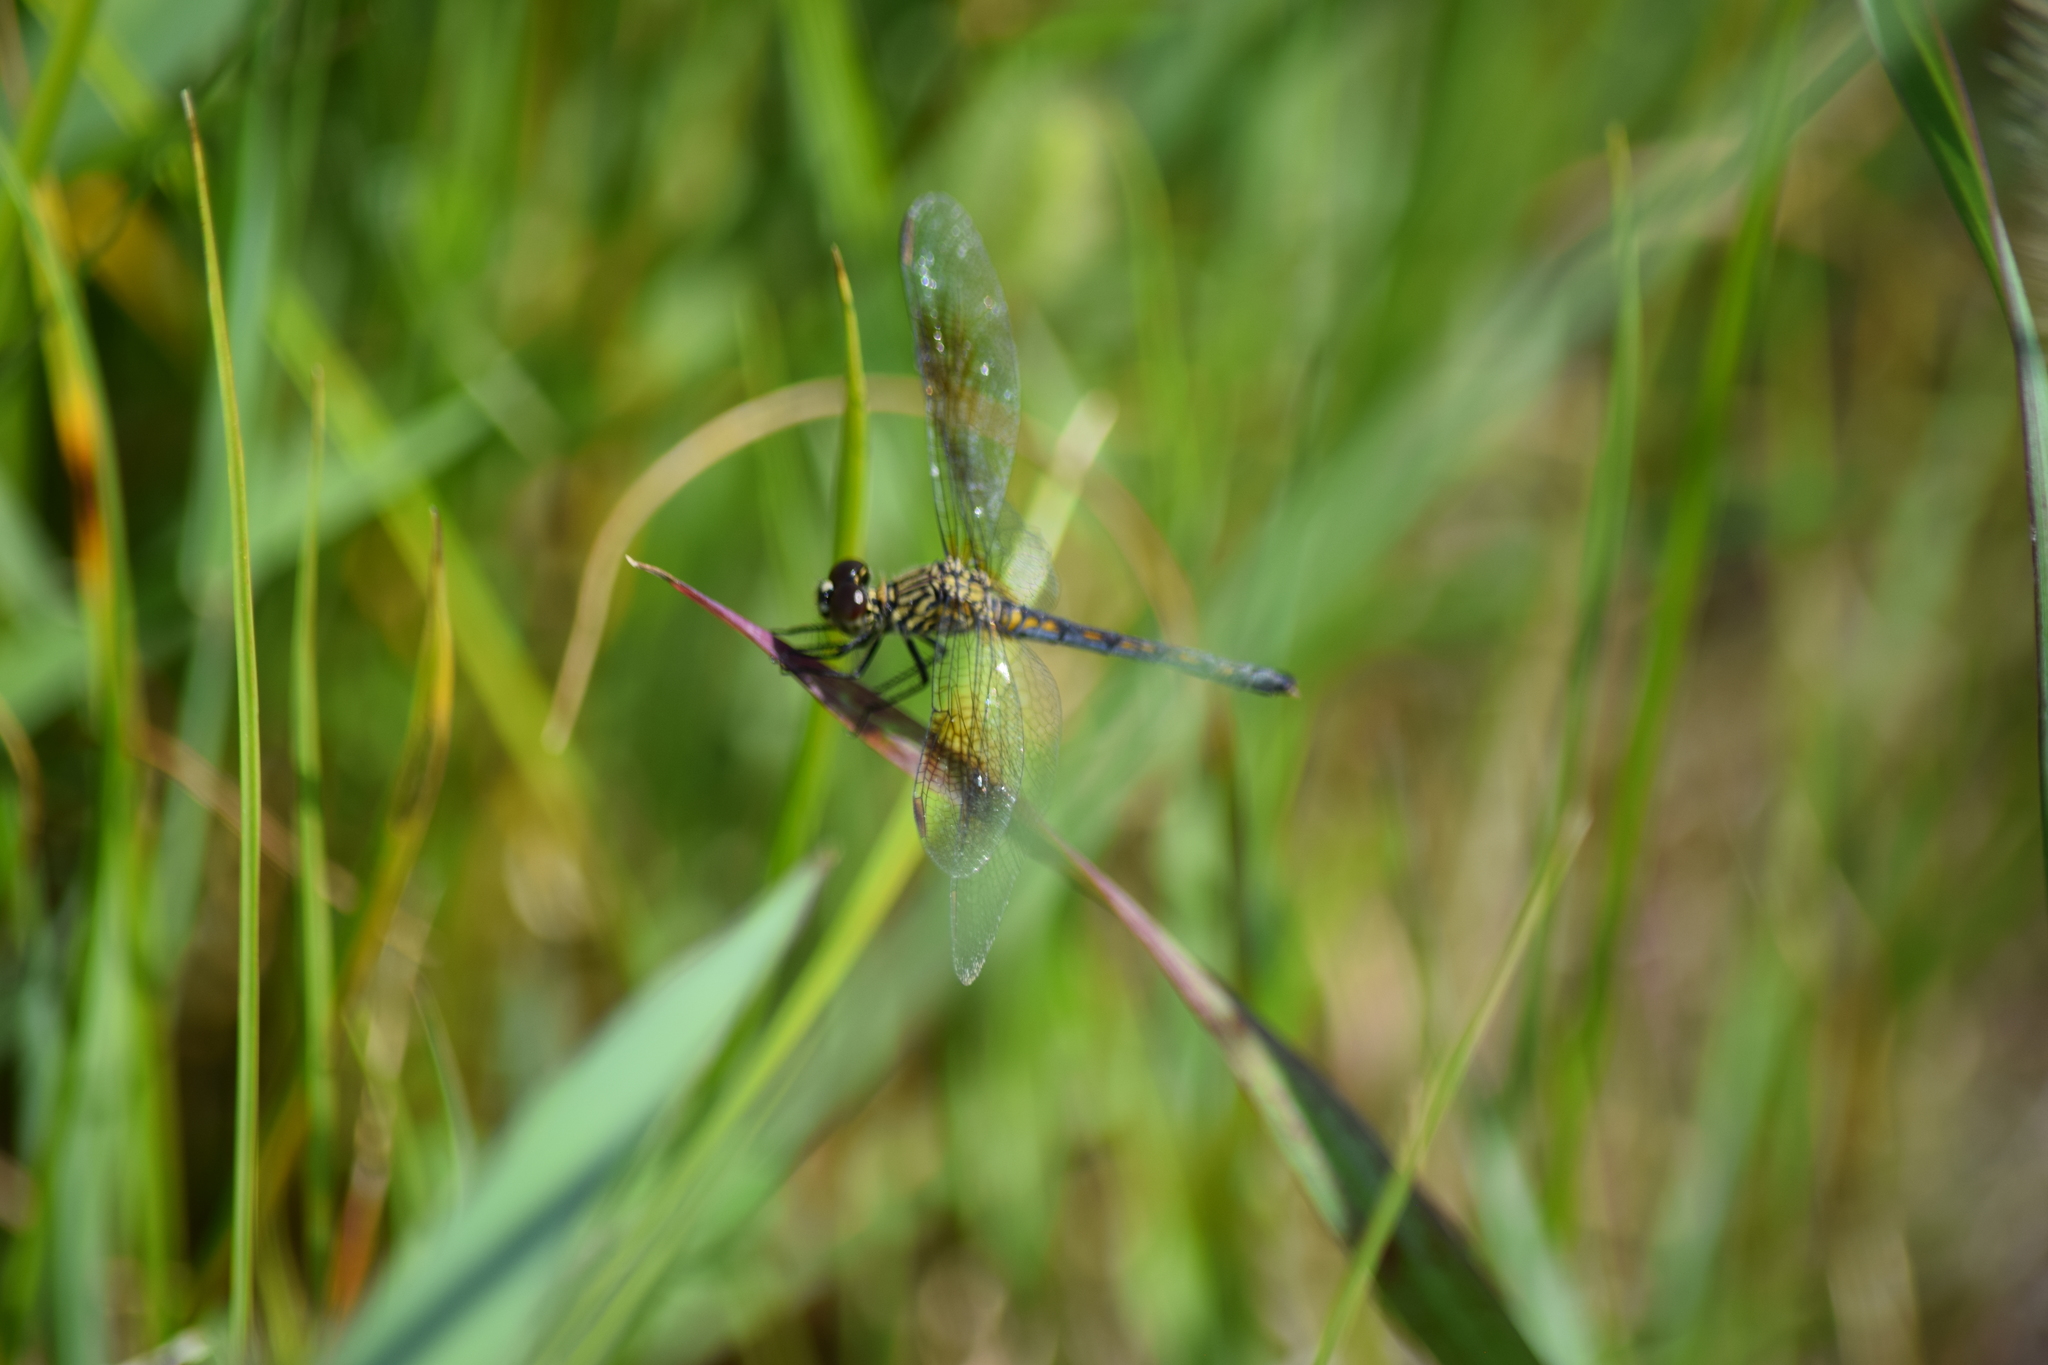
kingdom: Animalia
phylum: Arthropoda
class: Insecta
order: Odonata
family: Libellulidae
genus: Erythrodiplax
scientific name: Erythrodiplax berenice
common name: Seaside dragonlet
